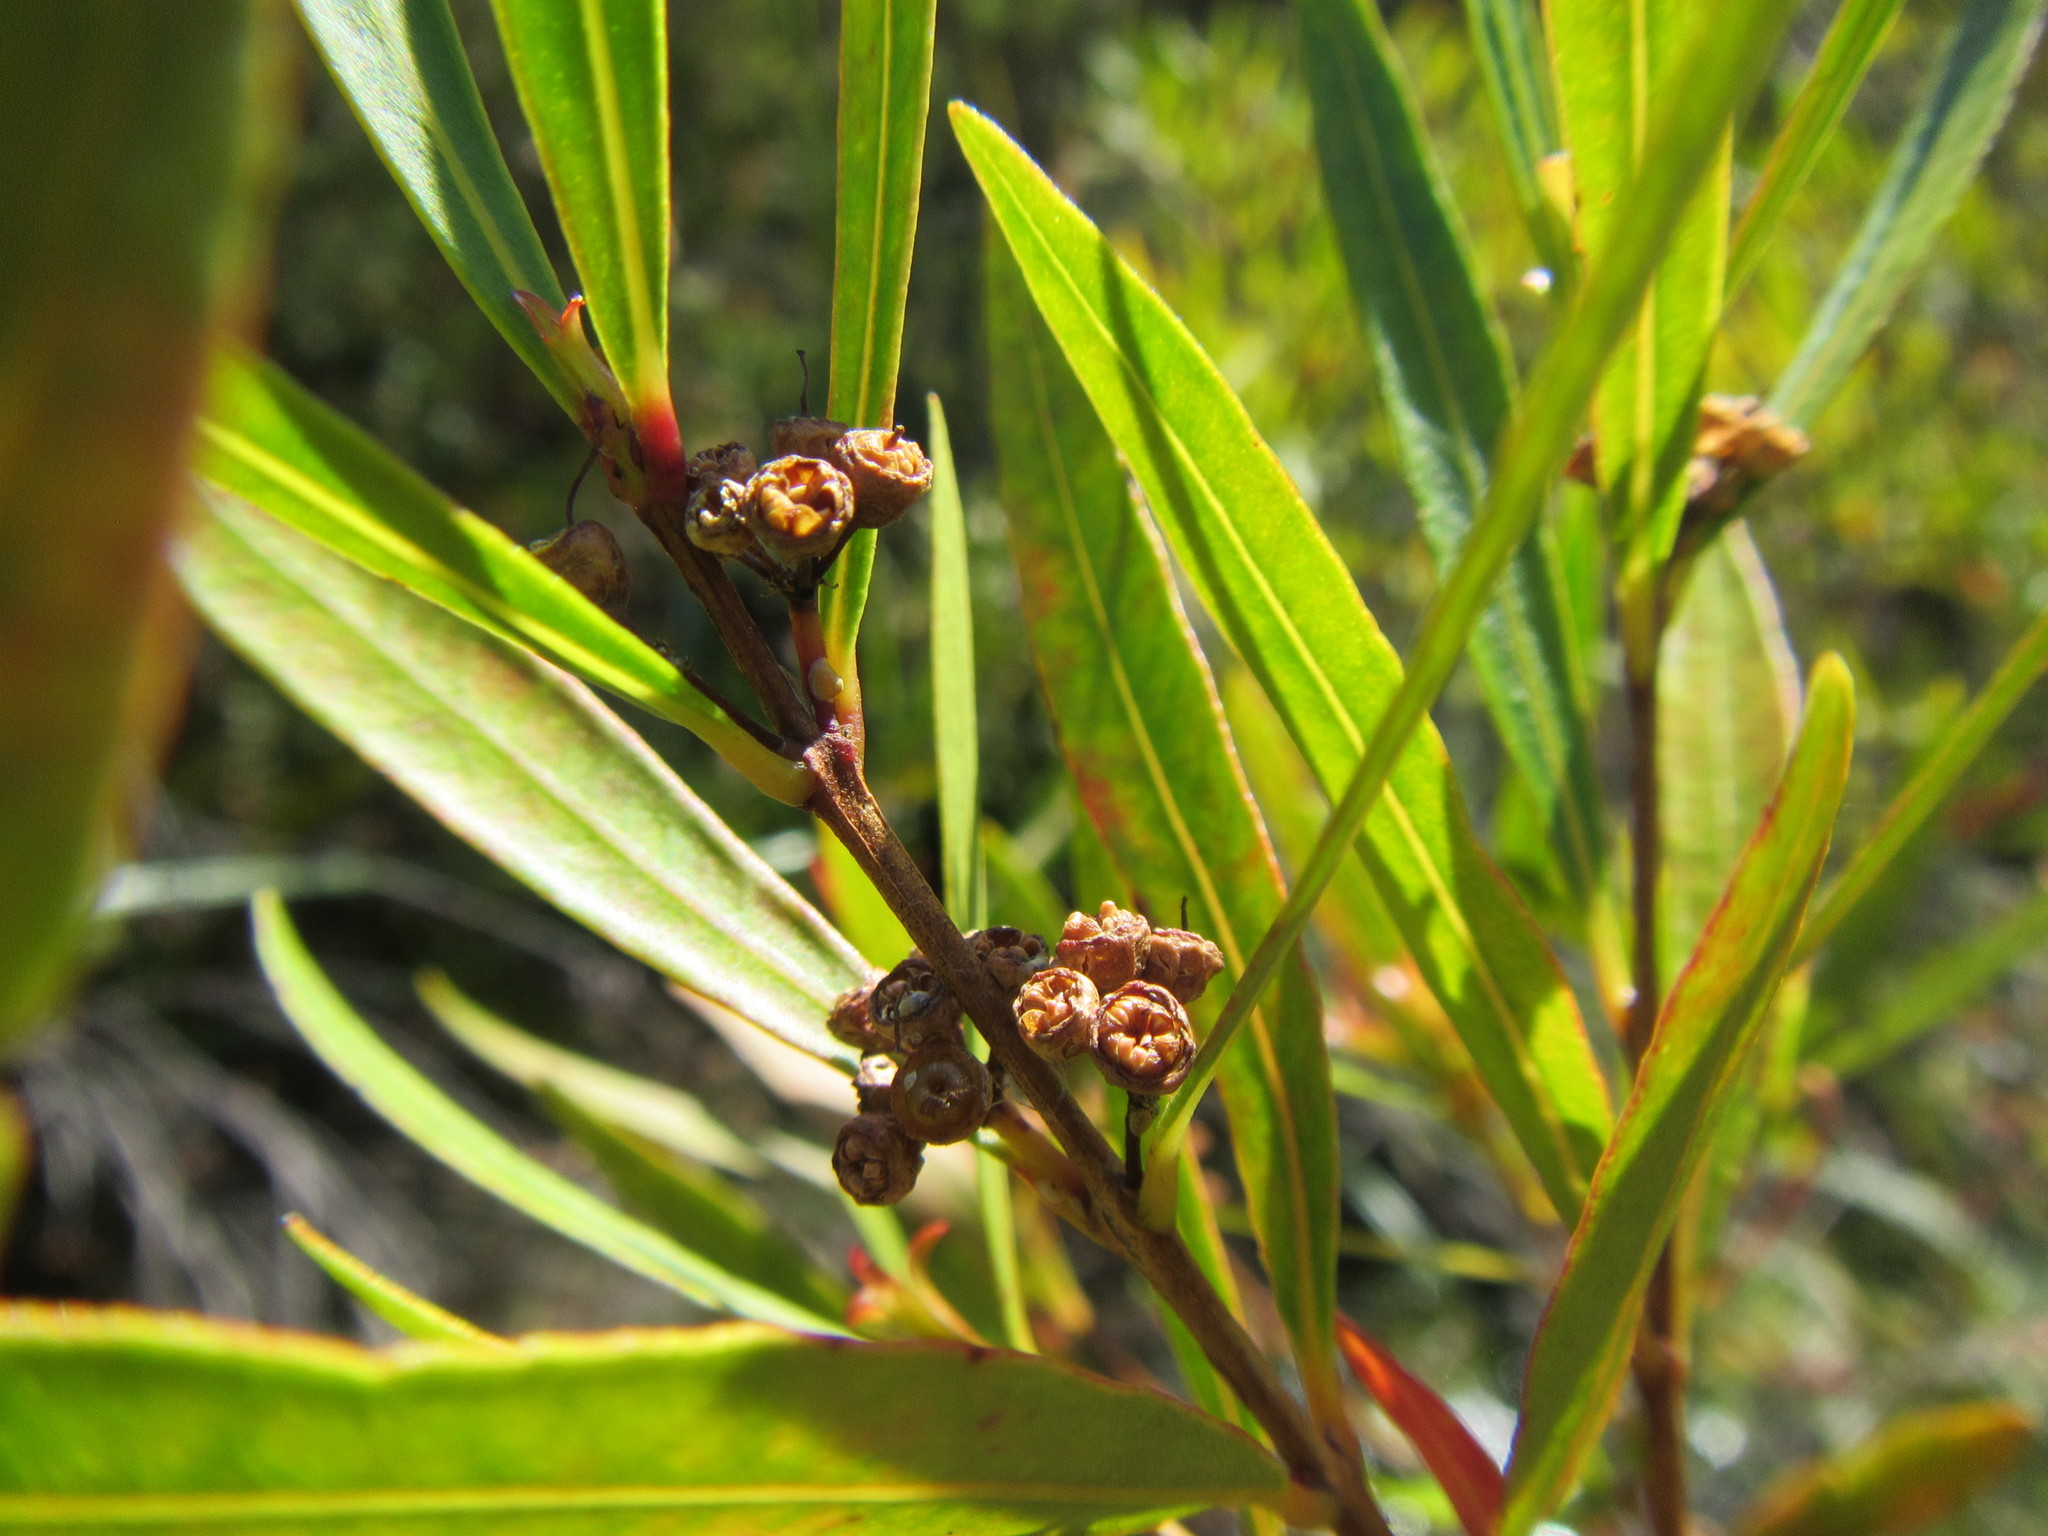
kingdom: Plantae
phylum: Tracheophyta
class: Magnoliopsida
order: Myrtales
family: Myrtaceae
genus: Callistemon
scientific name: Callistemon lanceolatus
